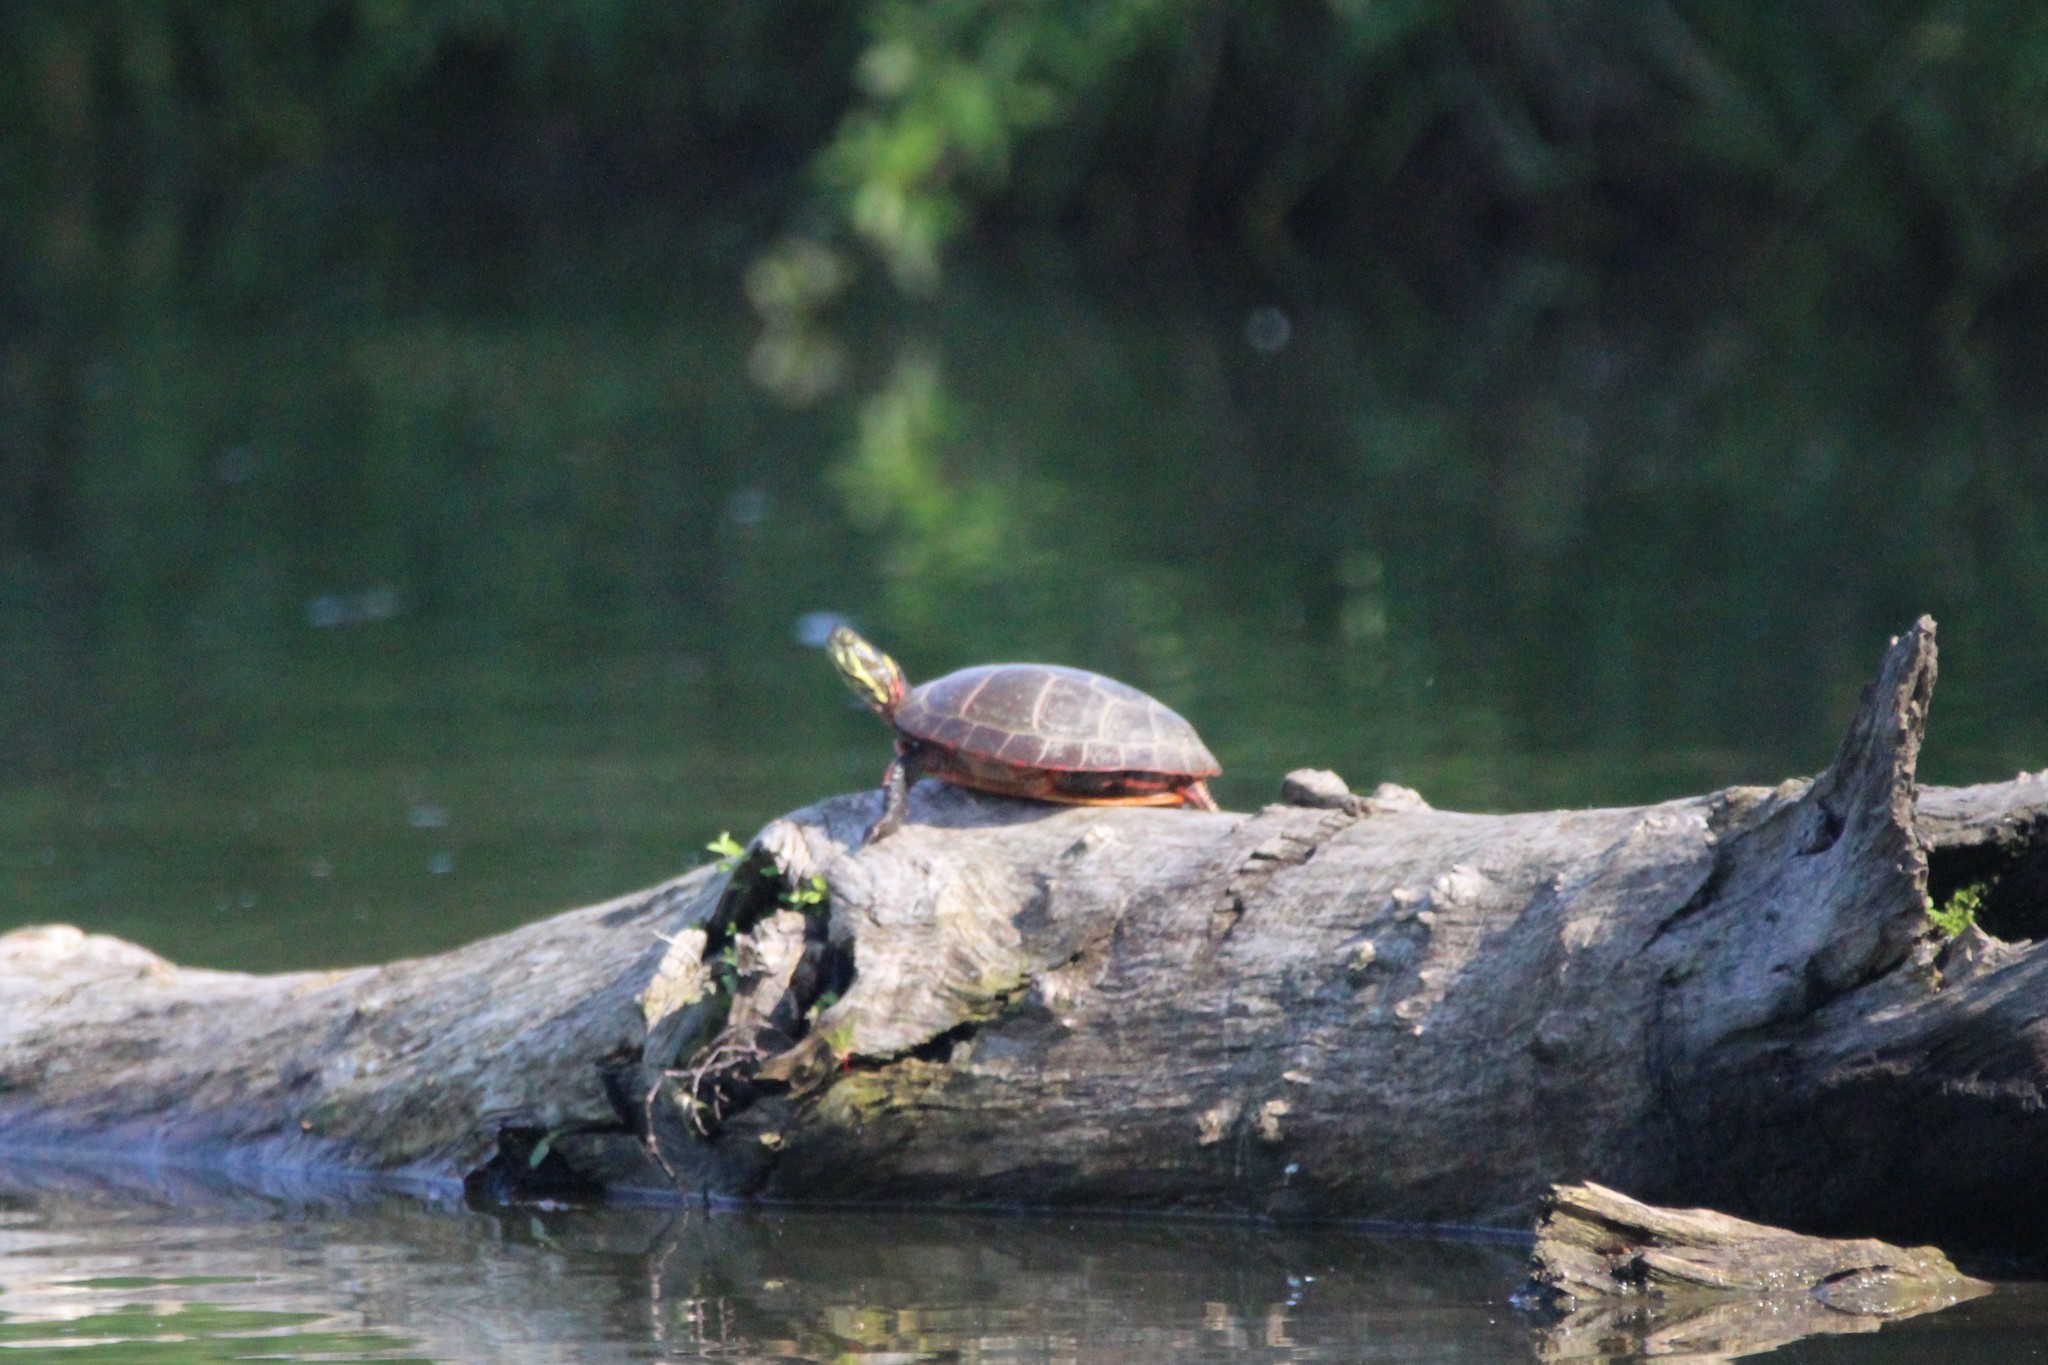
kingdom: Animalia
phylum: Chordata
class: Testudines
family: Emydidae
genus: Chrysemys
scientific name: Chrysemys picta
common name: Painted turtle
